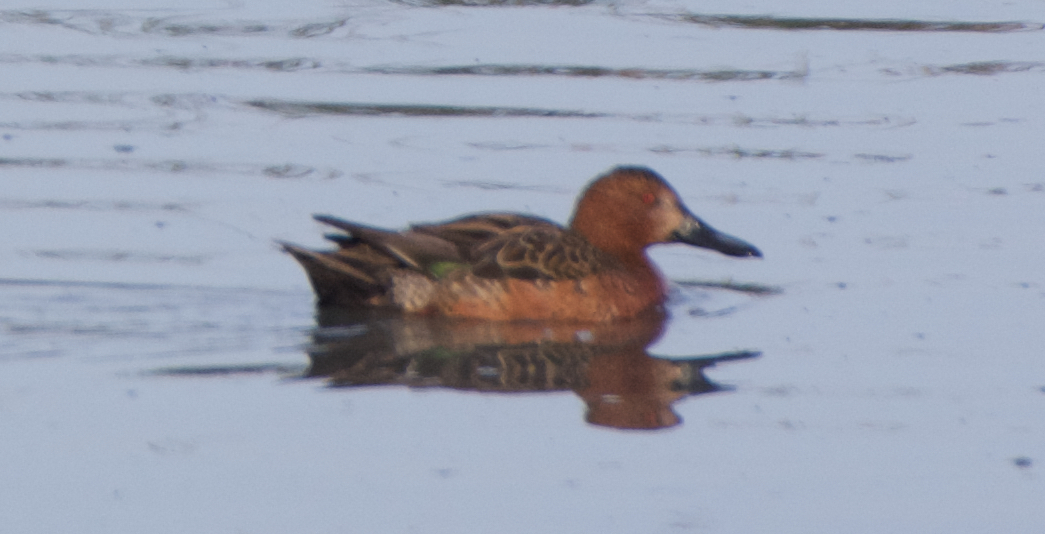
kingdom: Animalia
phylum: Chordata
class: Aves
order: Anseriformes
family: Anatidae
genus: Spatula
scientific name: Spatula cyanoptera
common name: Cinnamon teal
